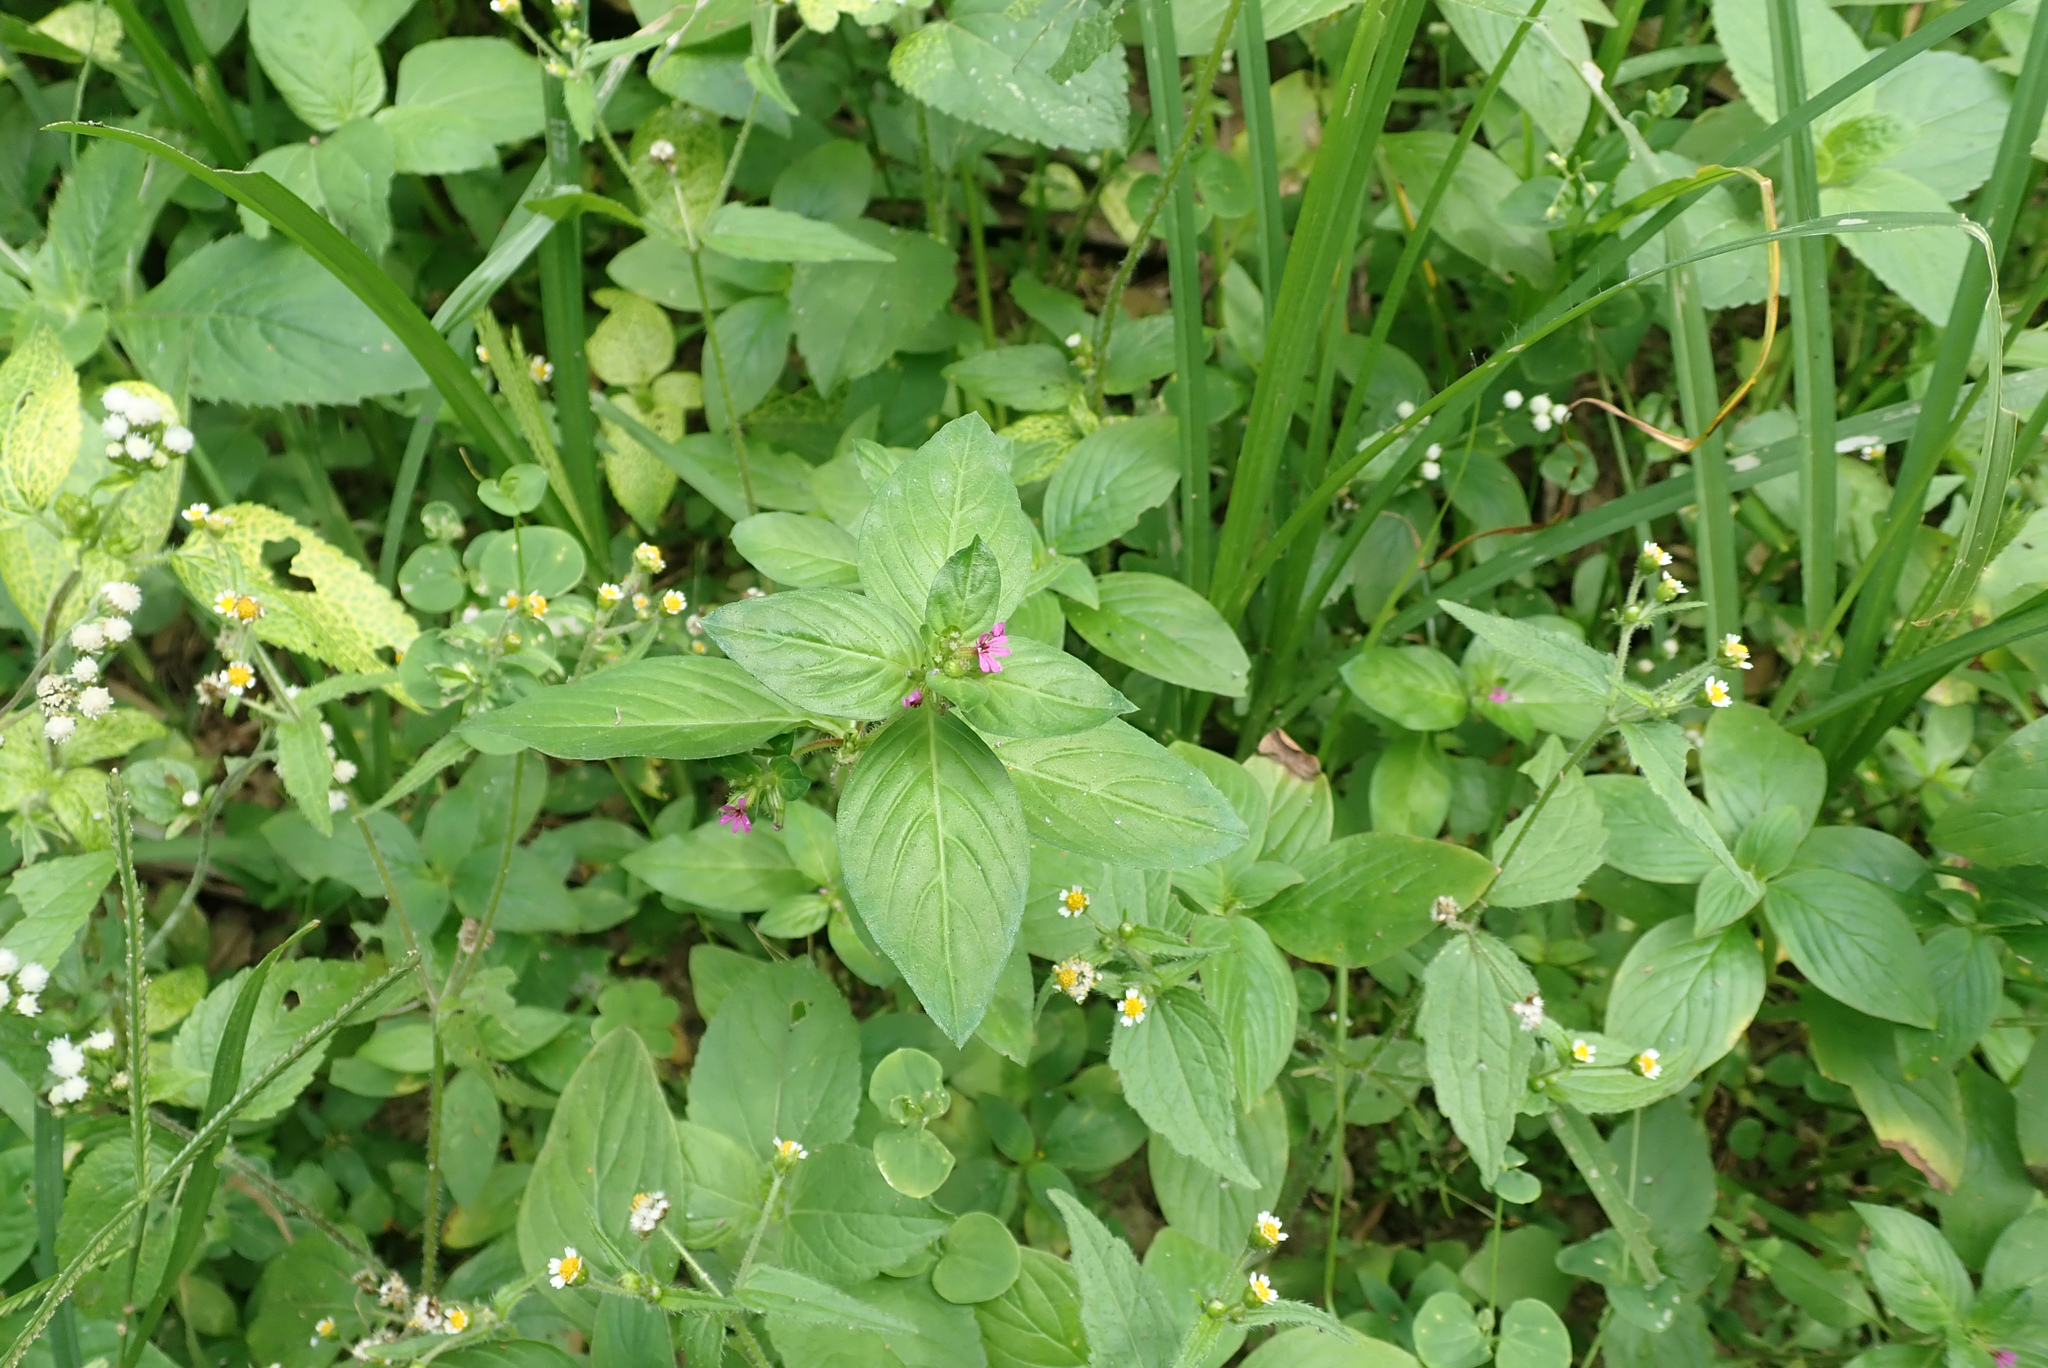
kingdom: Plantae
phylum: Tracheophyta
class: Magnoliopsida
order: Myrtales
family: Lythraceae
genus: Cuphea
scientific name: Cuphea carthagenensis
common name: Colombian waxweed
